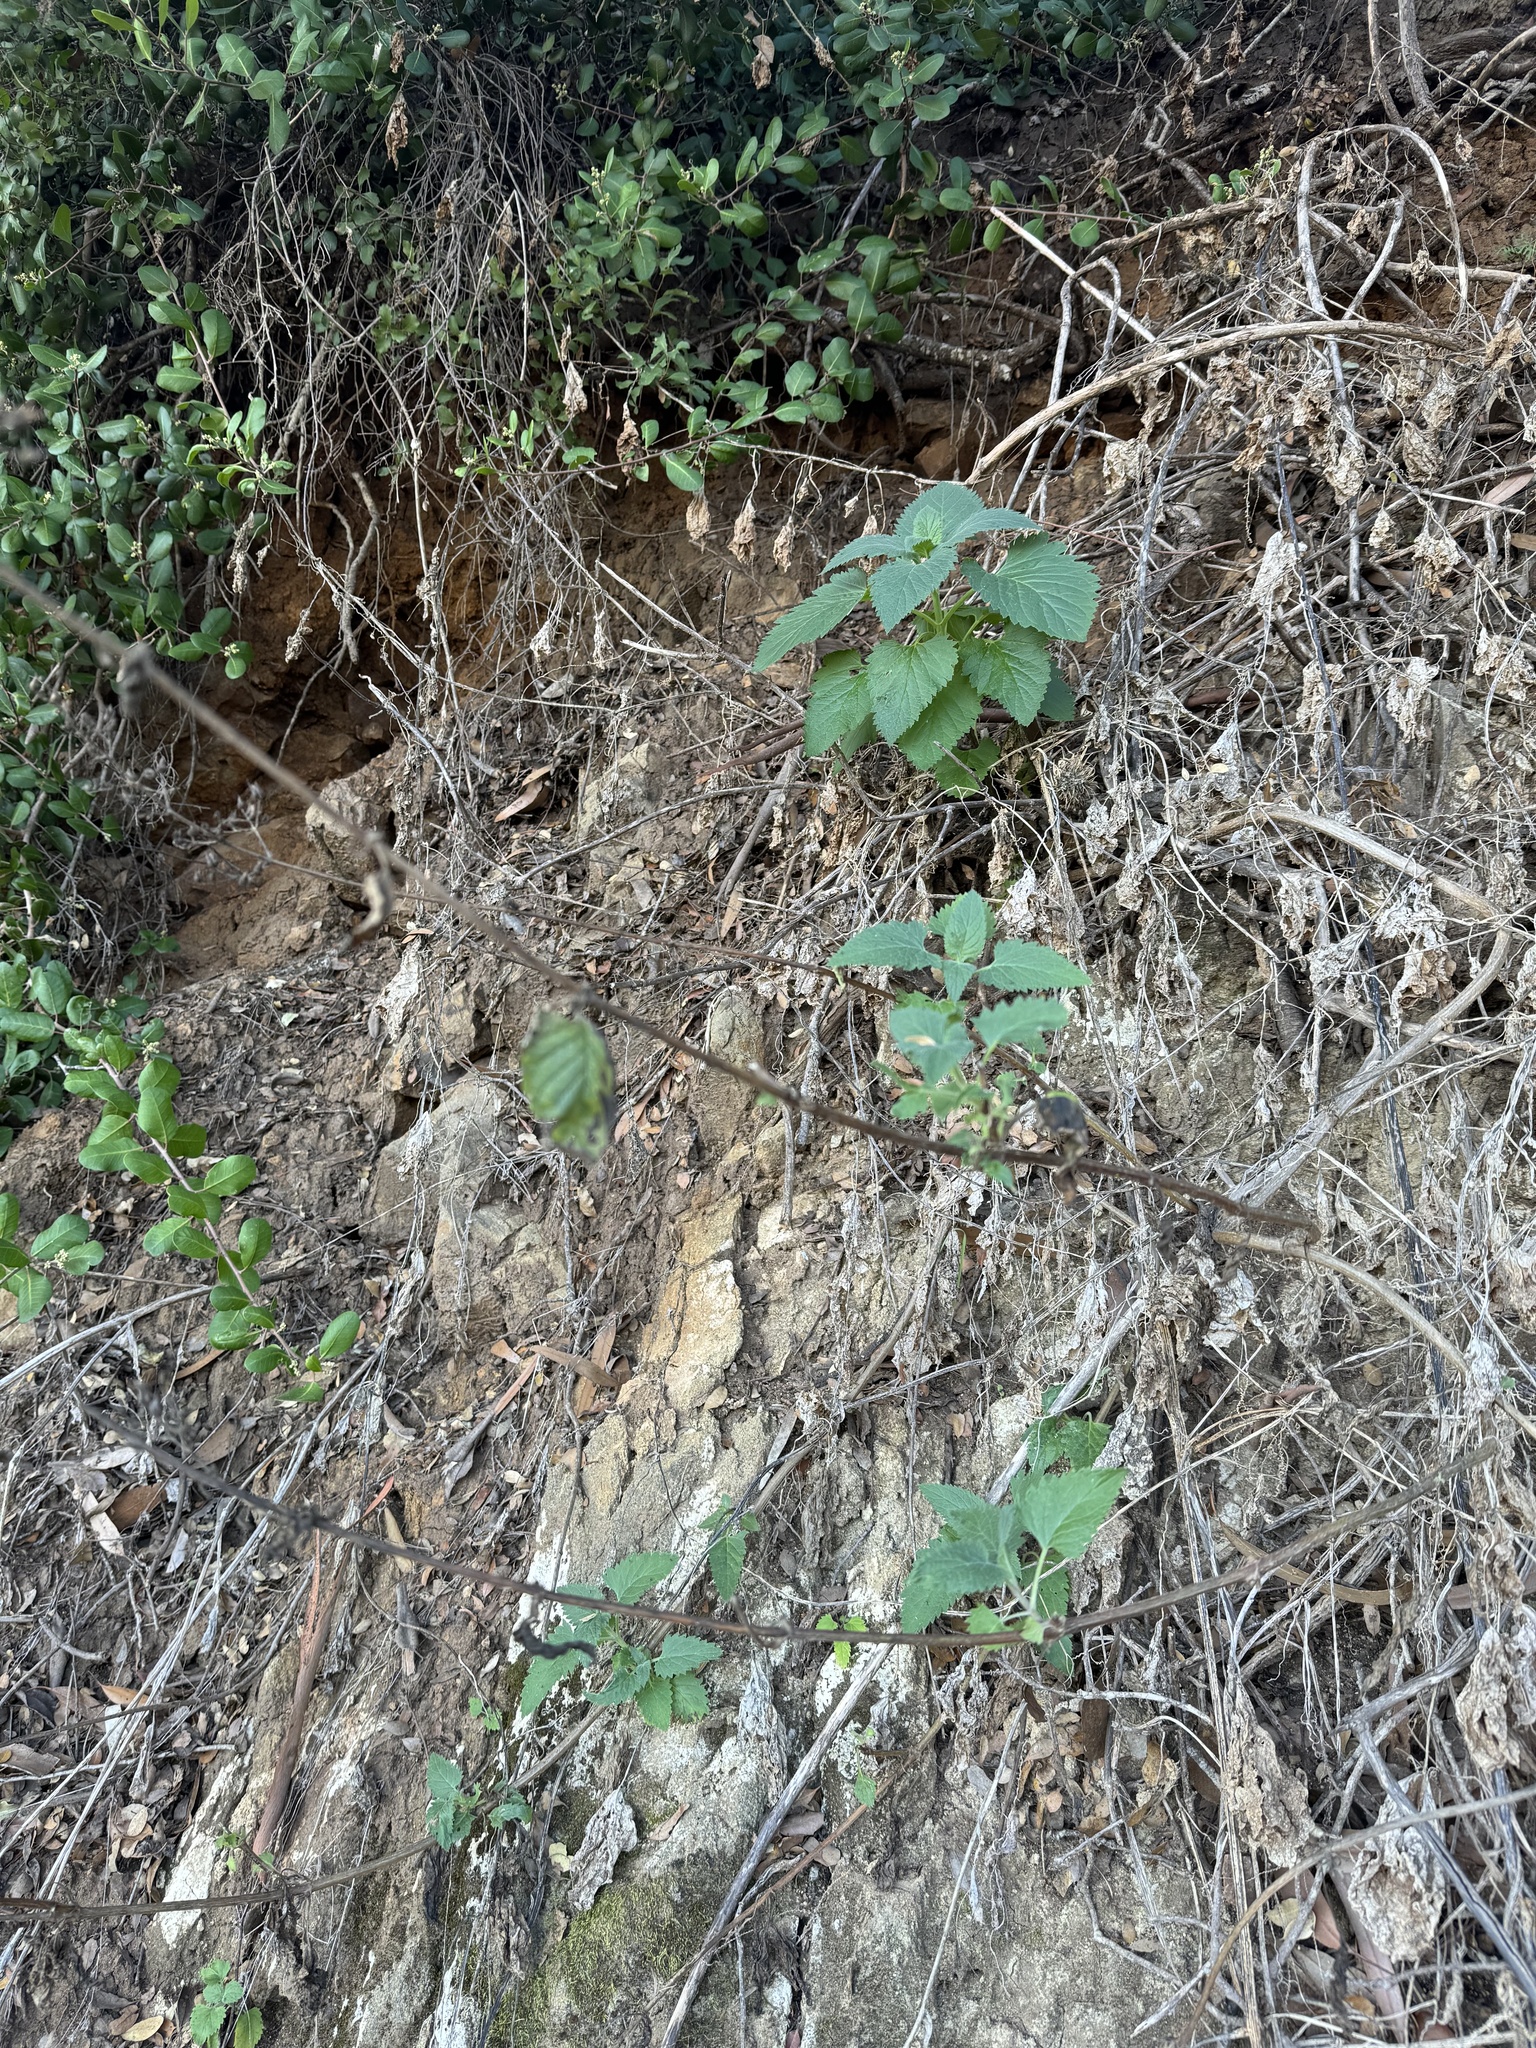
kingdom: Plantae
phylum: Tracheophyta
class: Magnoliopsida
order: Lamiales
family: Scrophulariaceae
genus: Scrophularia
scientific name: Scrophularia villosa
